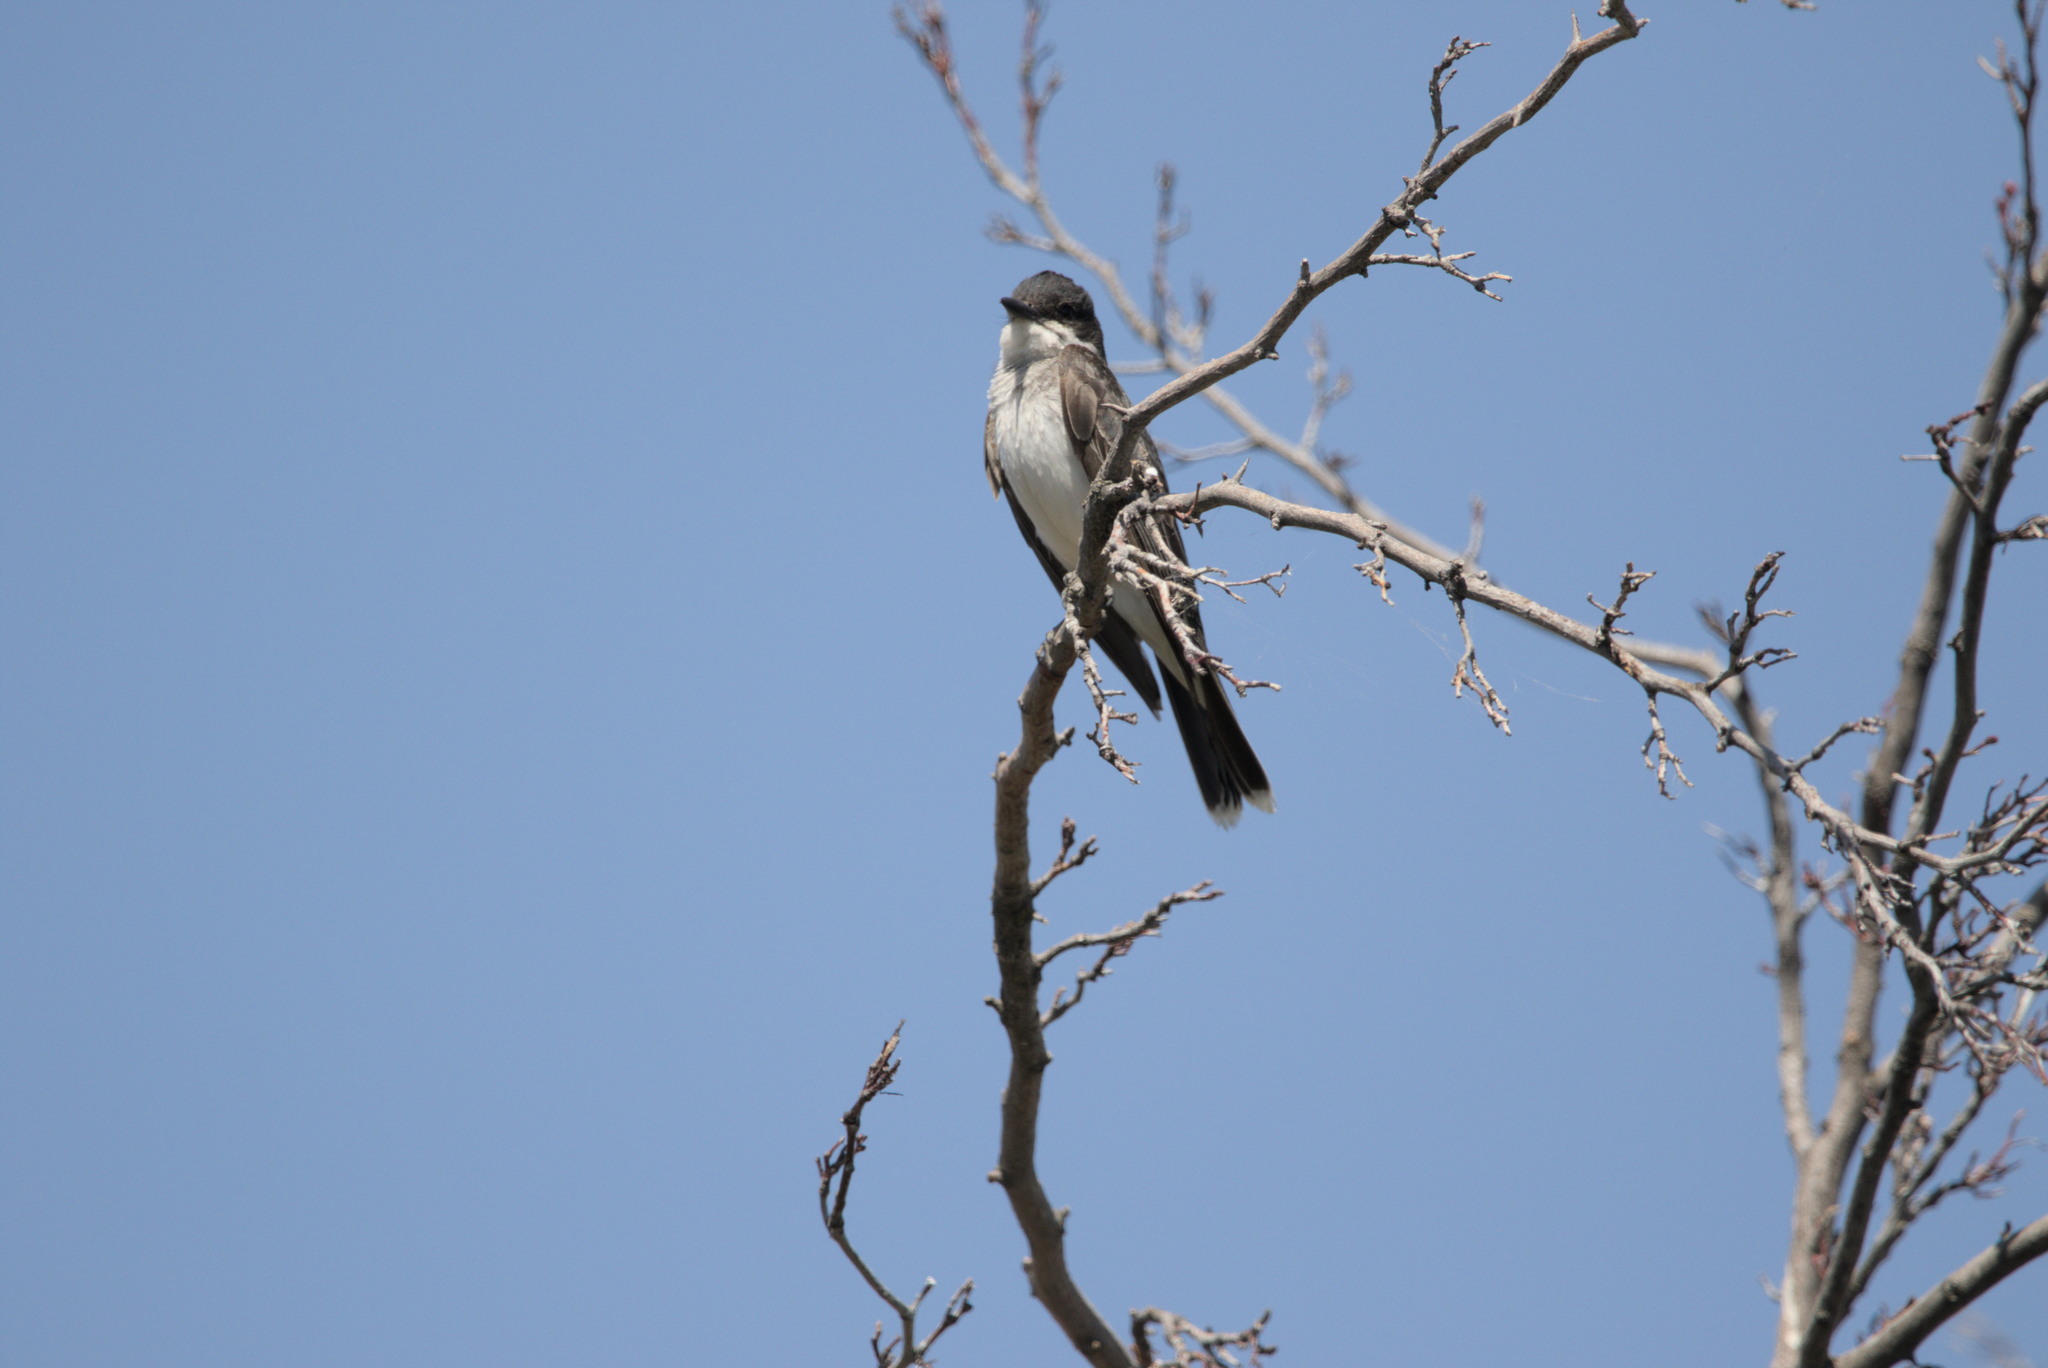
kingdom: Animalia
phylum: Chordata
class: Aves
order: Passeriformes
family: Tyrannidae
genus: Tyrannus
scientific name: Tyrannus tyrannus
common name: Eastern kingbird
